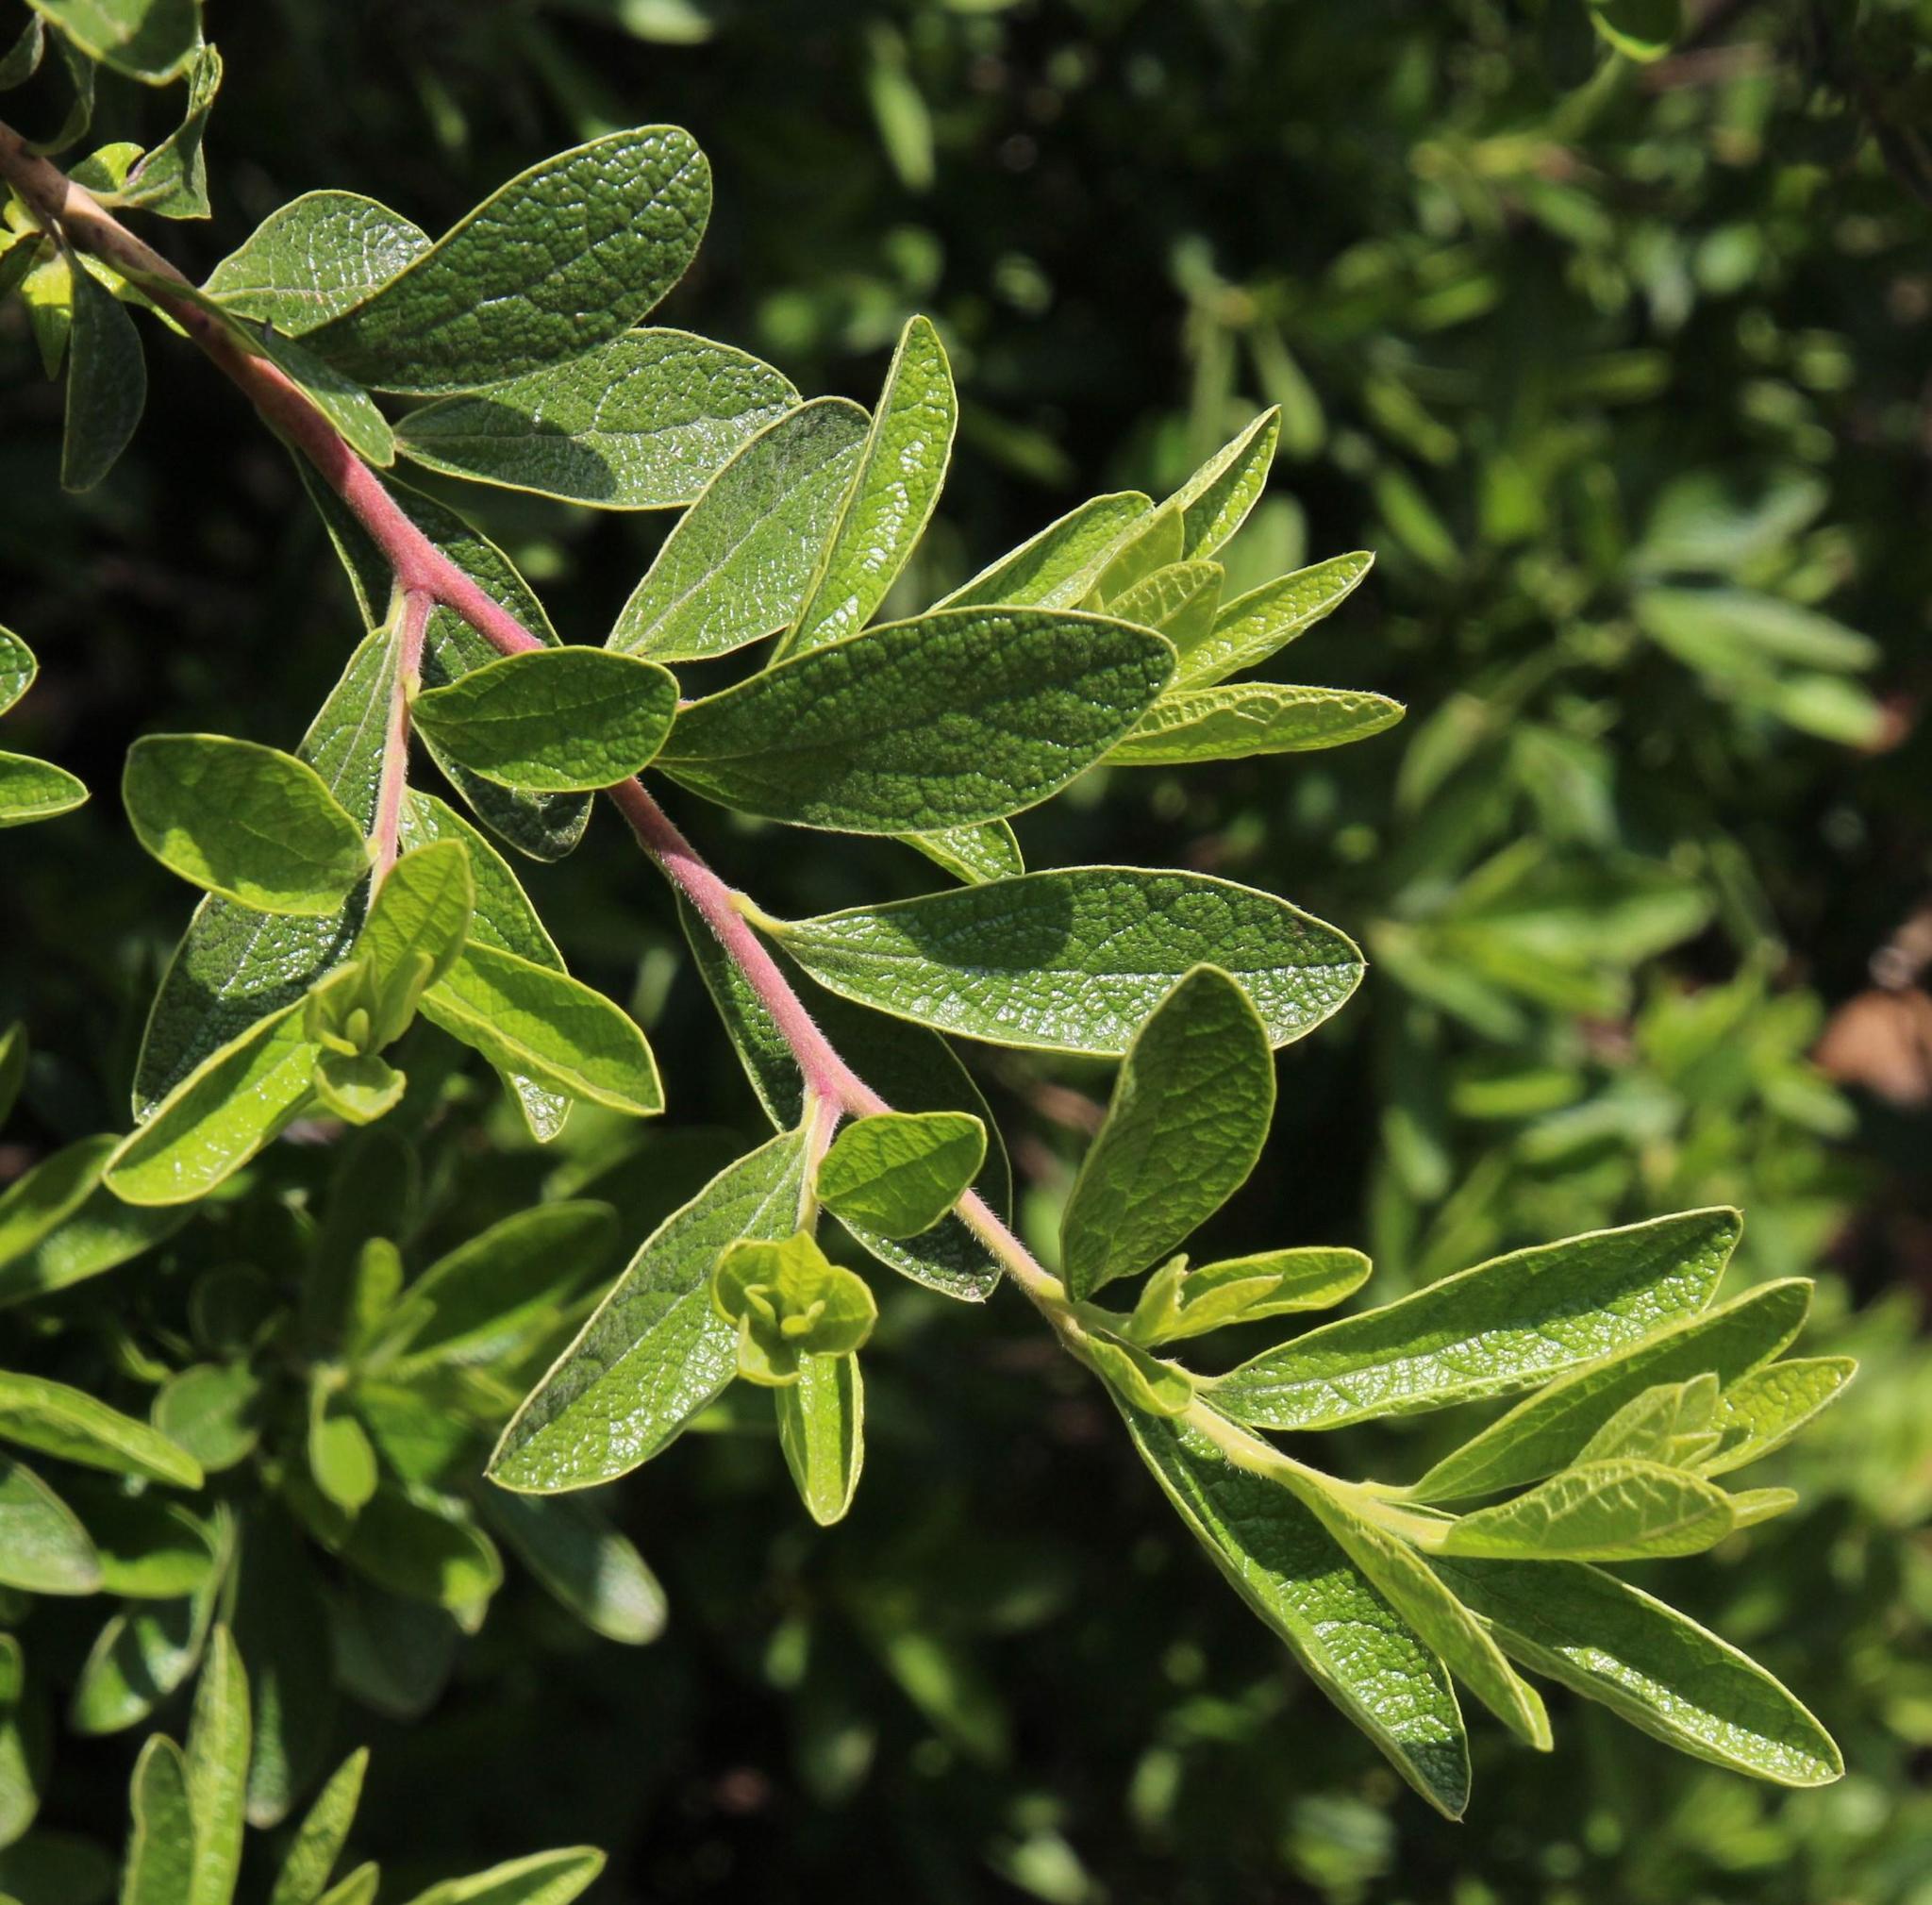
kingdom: Plantae
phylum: Tracheophyta
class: Magnoliopsida
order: Ericales
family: Ebenaceae
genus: Diospyros
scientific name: Diospyros lycioides
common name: Red star apple
